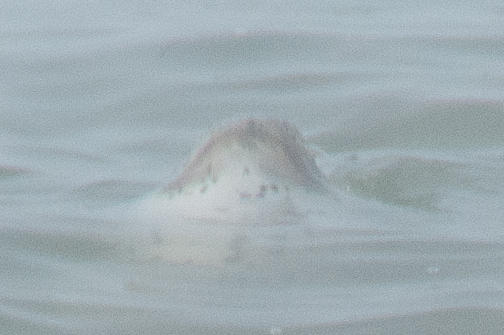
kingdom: Animalia
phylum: Chordata
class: Mammalia
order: Carnivora
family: Phocidae
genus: Phoca
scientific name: Phoca vitulina
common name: Harbor seal
